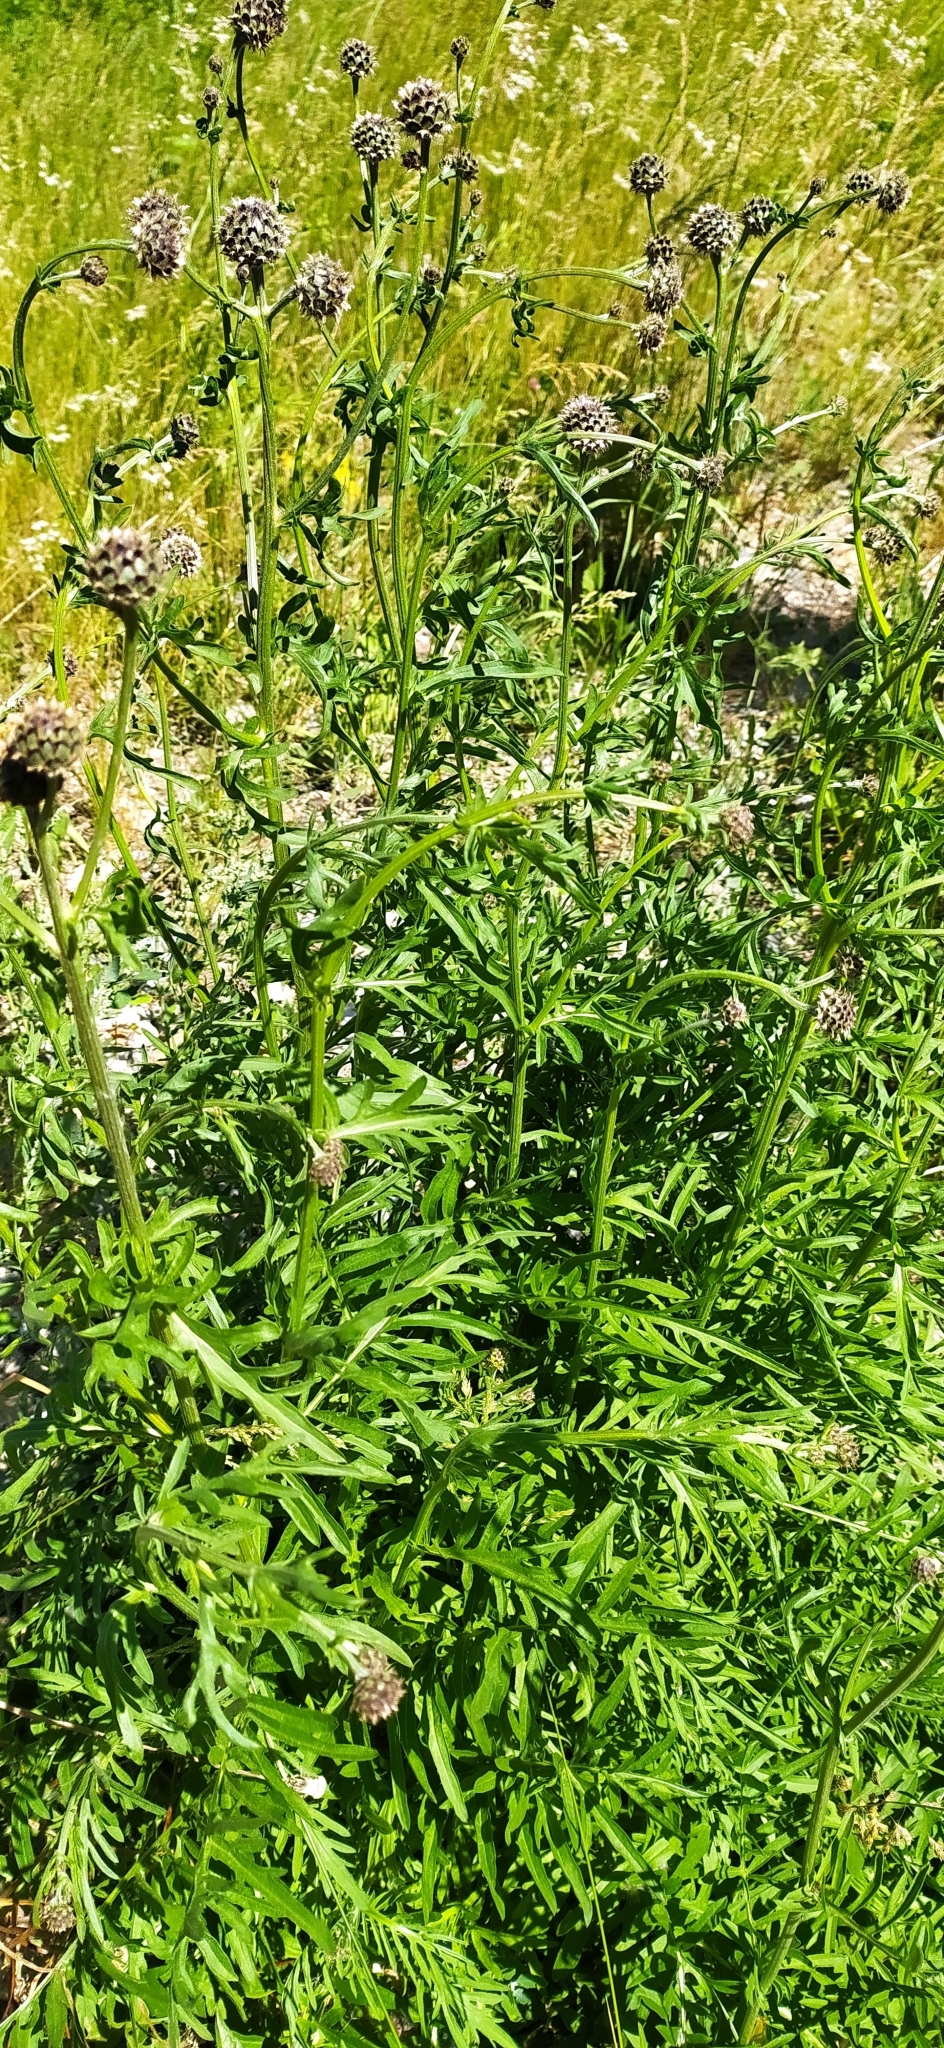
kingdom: Plantae
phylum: Tracheophyta
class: Magnoliopsida
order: Asterales
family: Asteraceae
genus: Centaurea
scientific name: Centaurea scabiosa
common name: Greater knapweed
